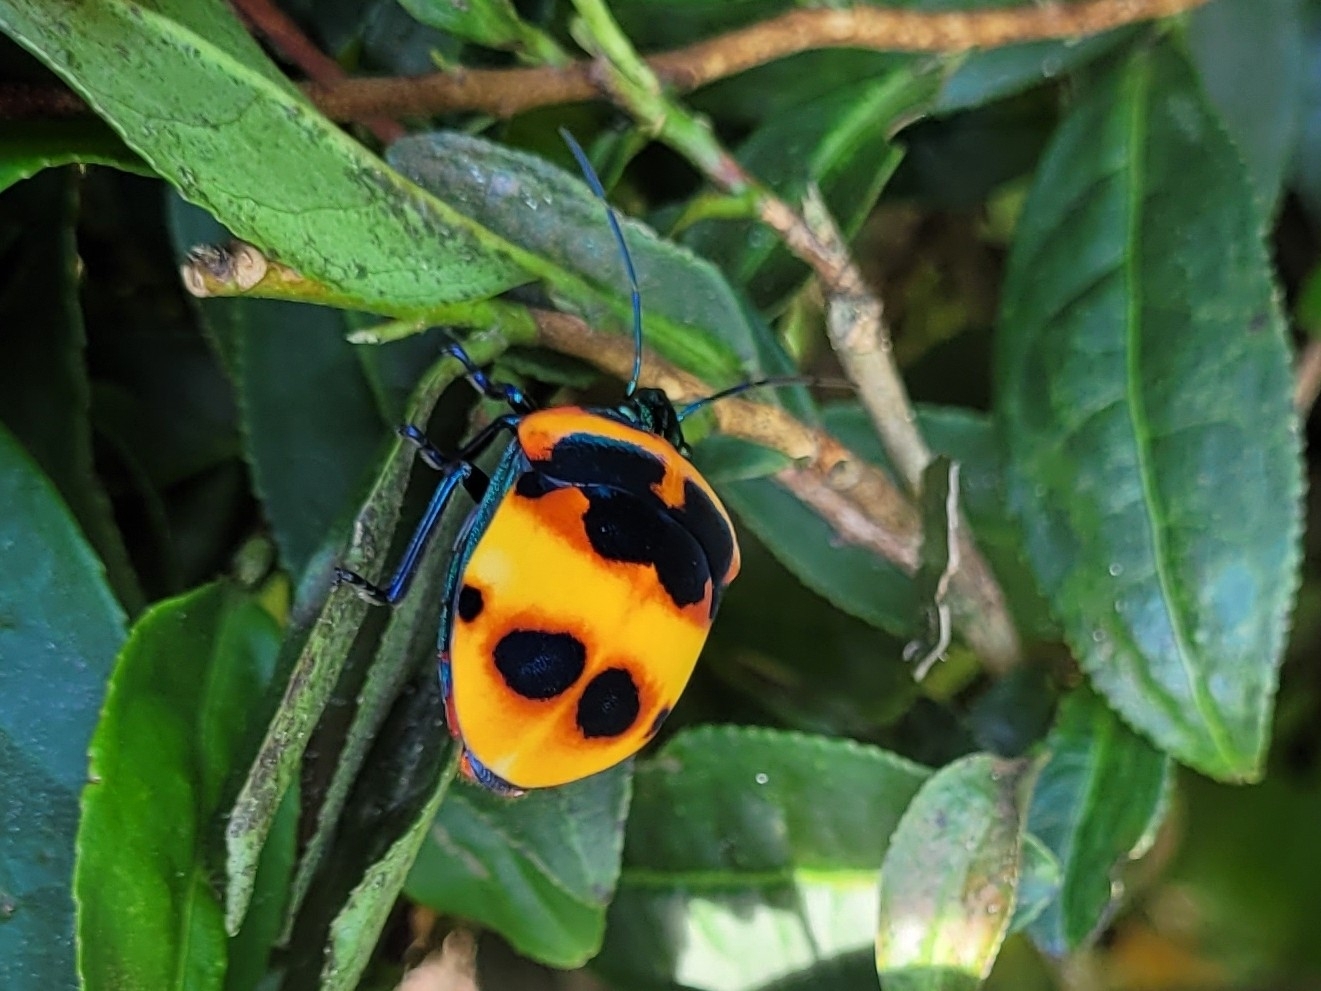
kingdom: Animalia
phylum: Arthropoda
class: Insecta
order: Hemiptera
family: Scutelleridae
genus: Poecilocoris
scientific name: Poecilocoris
